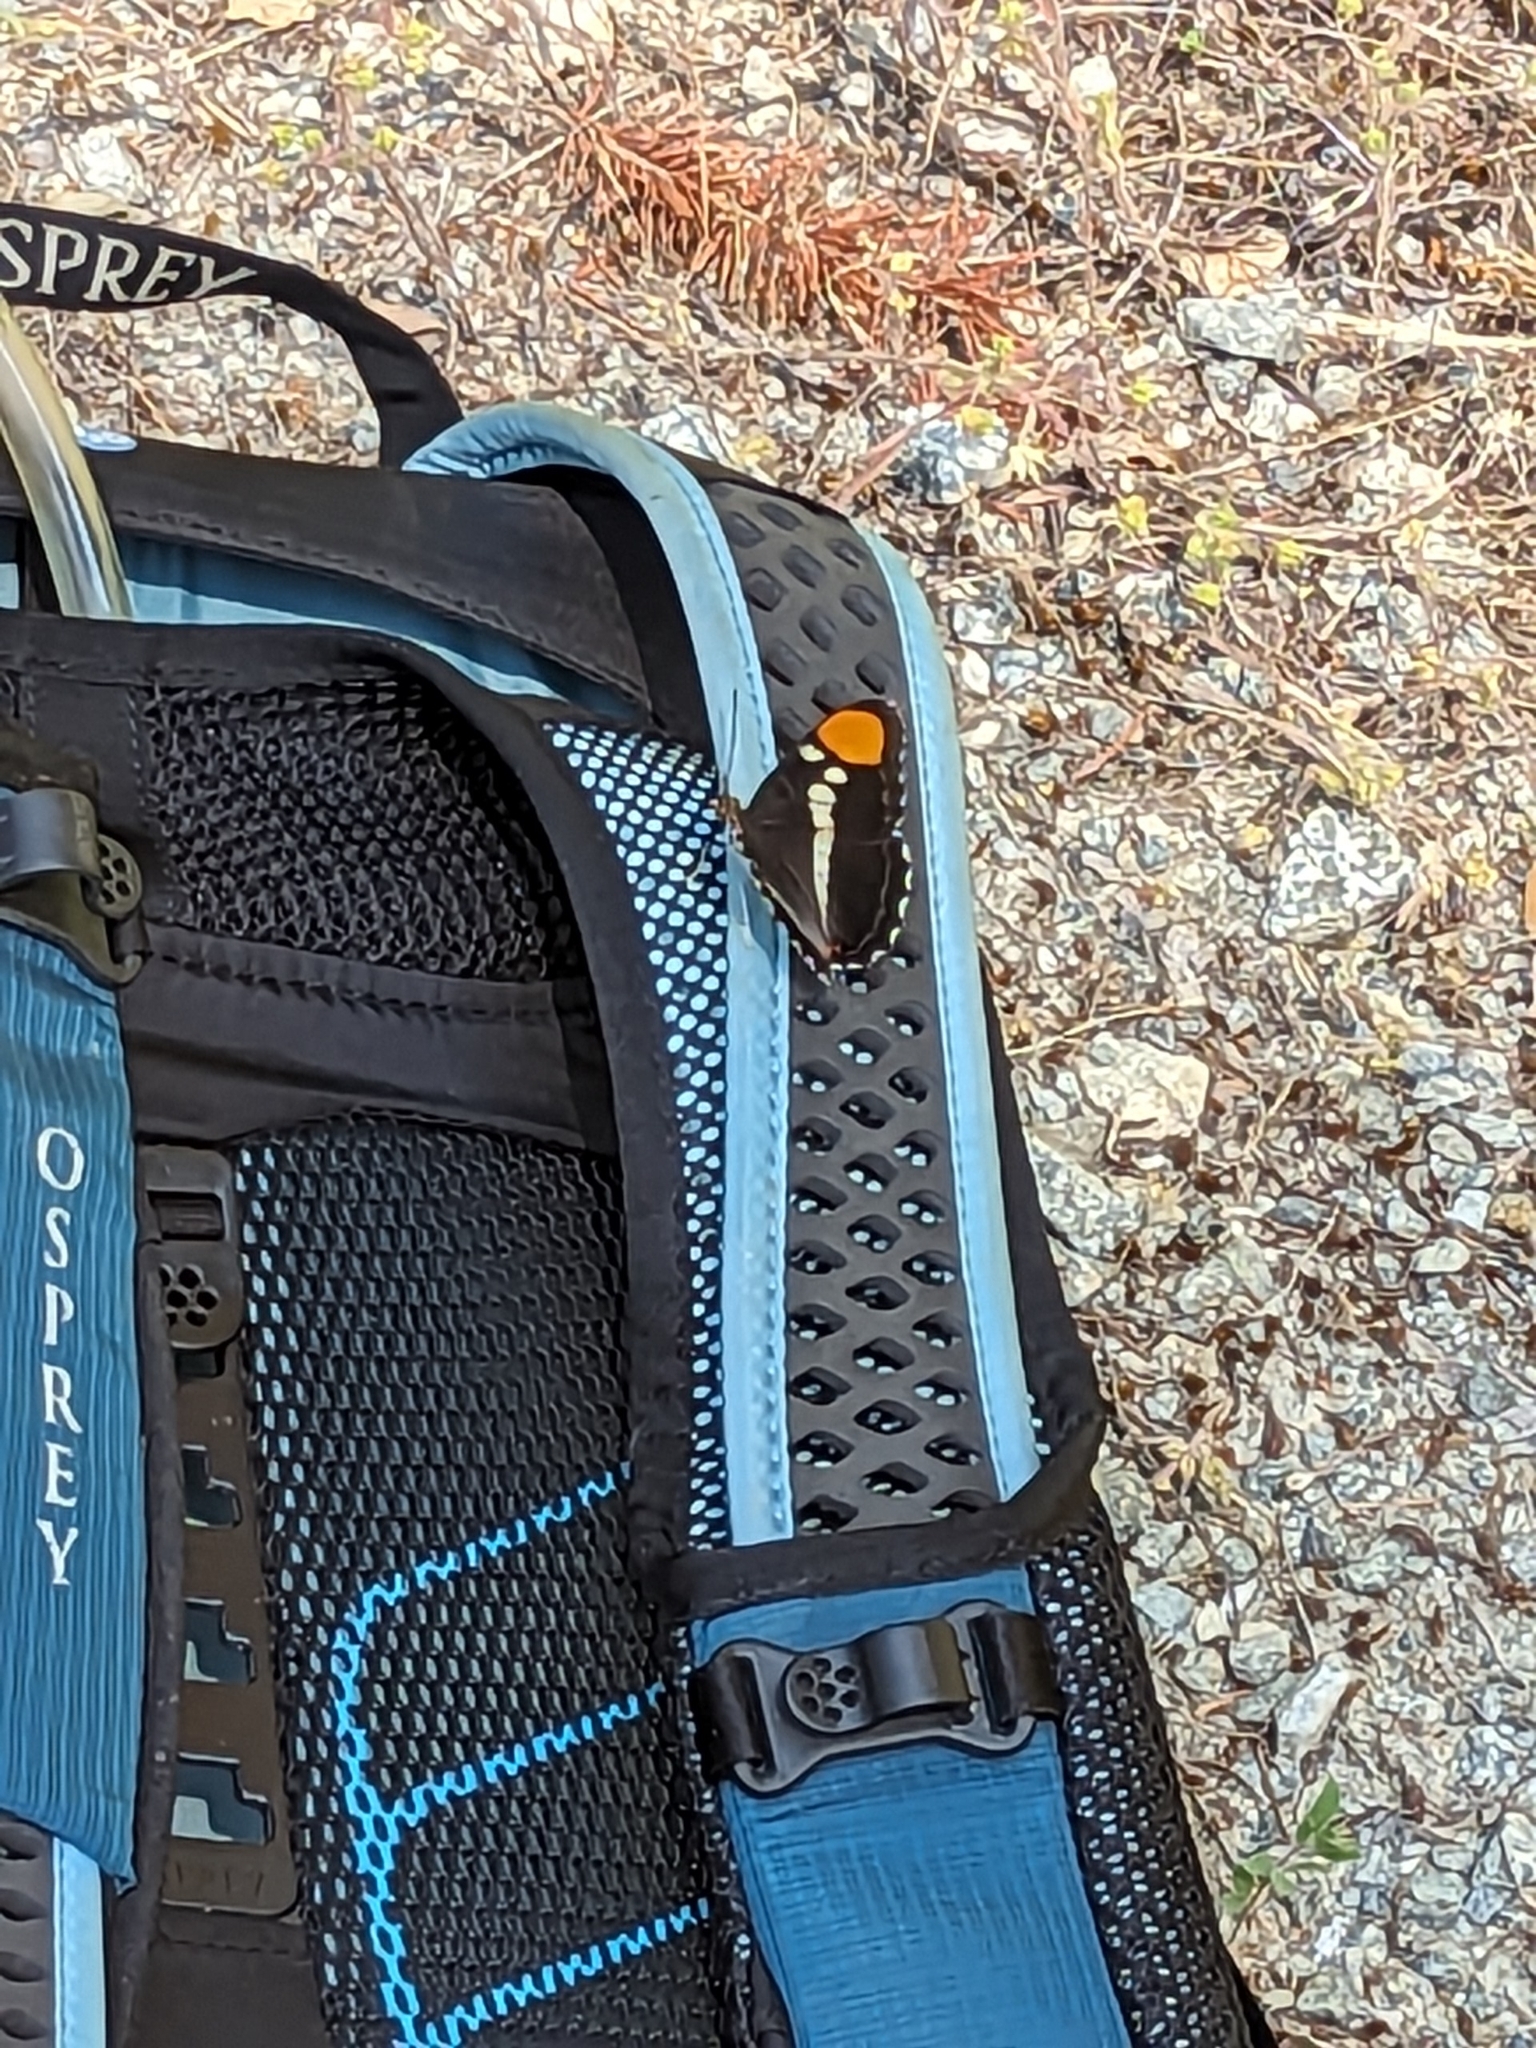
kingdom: Animalia
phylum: Arthropoda
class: Insecta
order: Lepidoptera
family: Nymphalidae
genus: Limenitis
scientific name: Limenitis bredowii
